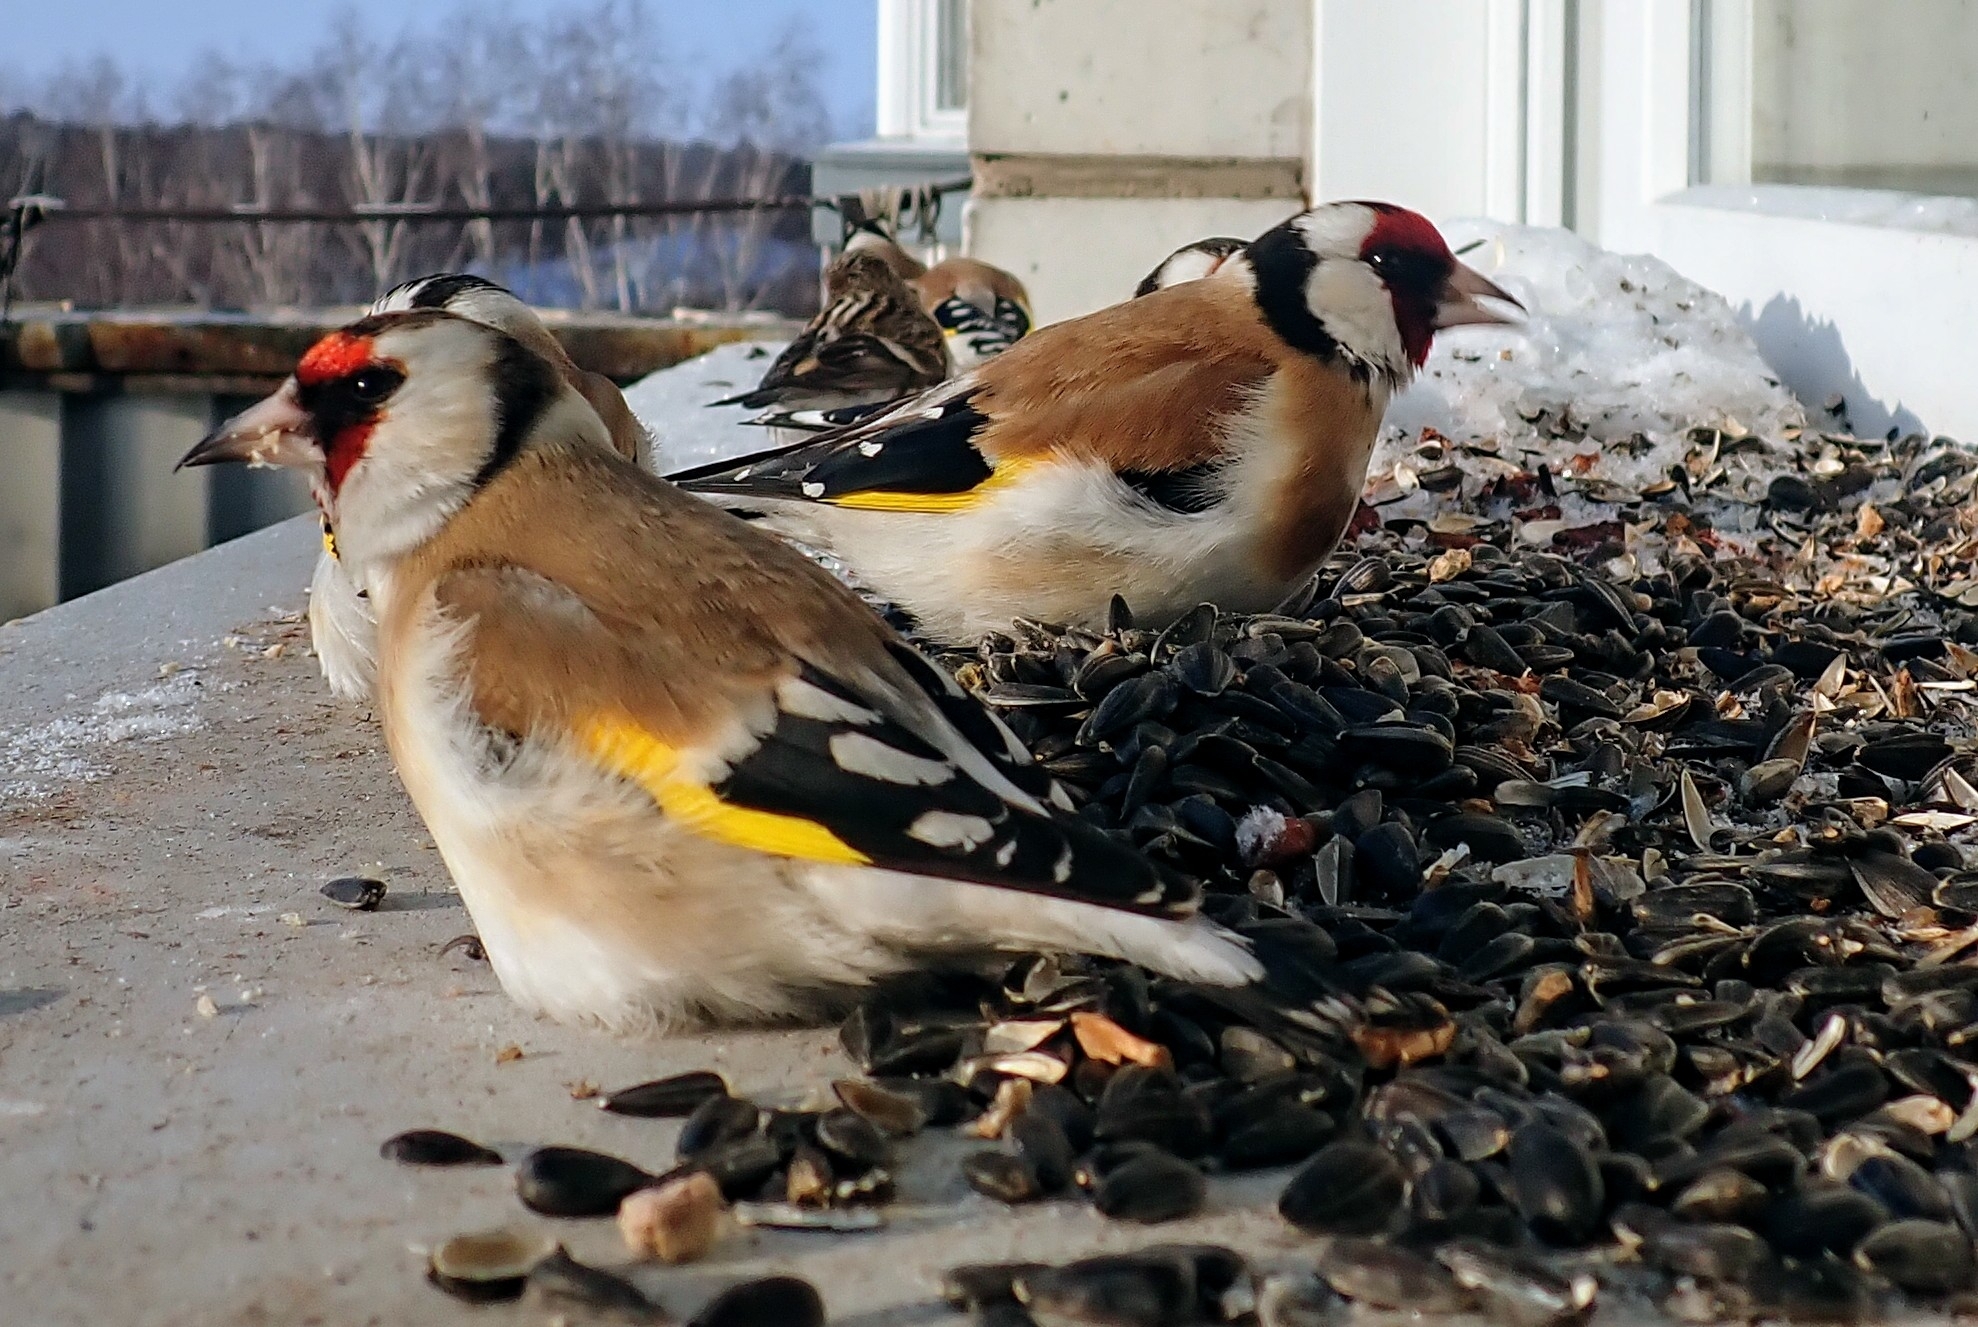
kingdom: Animalia
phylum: Chordata
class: Aves
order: Passeriformes
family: Fringillidae
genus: Carduelis
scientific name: Carduelis carduelis
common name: European goldfinch
